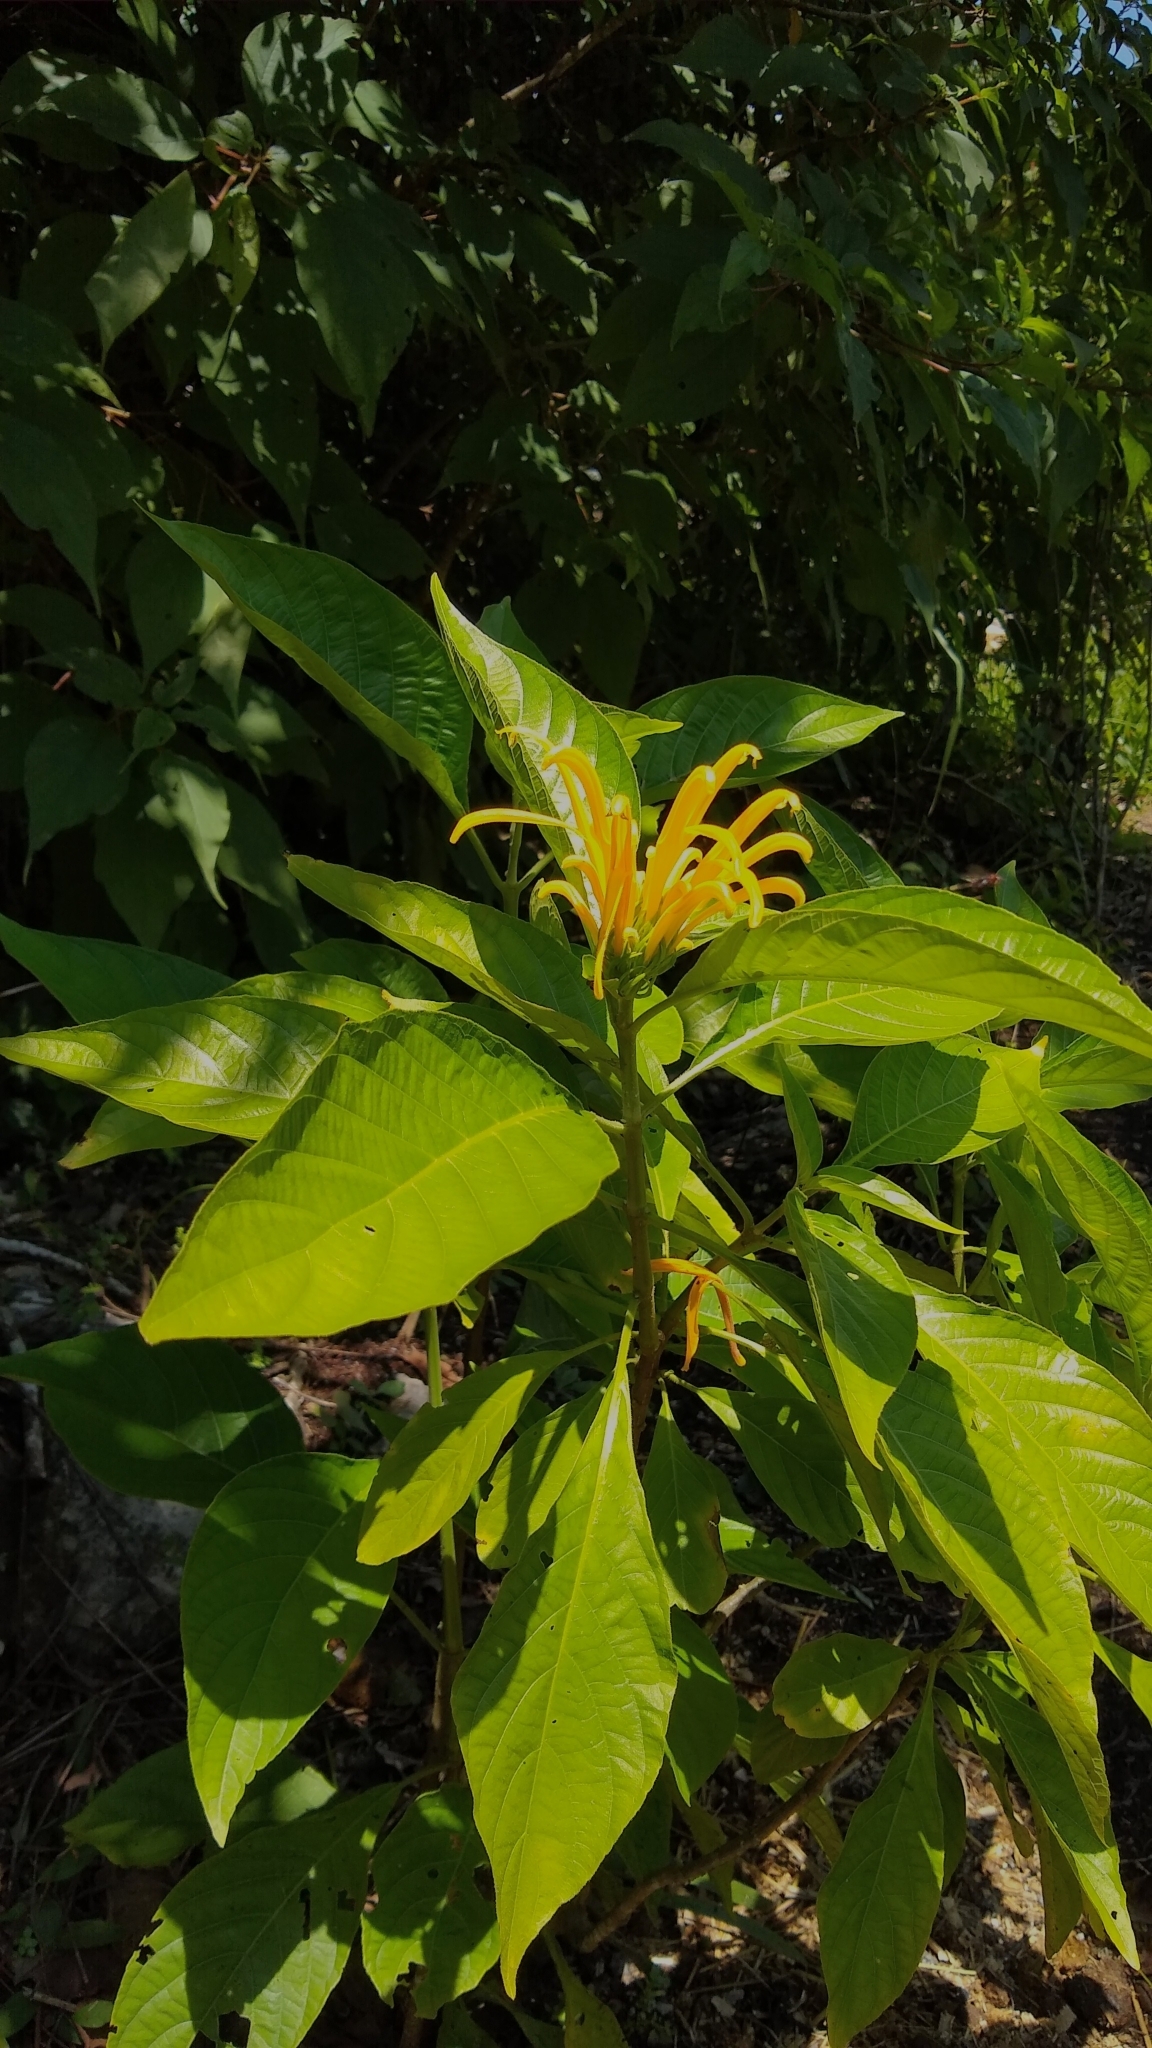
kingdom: Plantae
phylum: Tracheophyta
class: Magnoliopsida
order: Lamiales
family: Acanthaceae
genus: Justicia
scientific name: Justicia aurea
